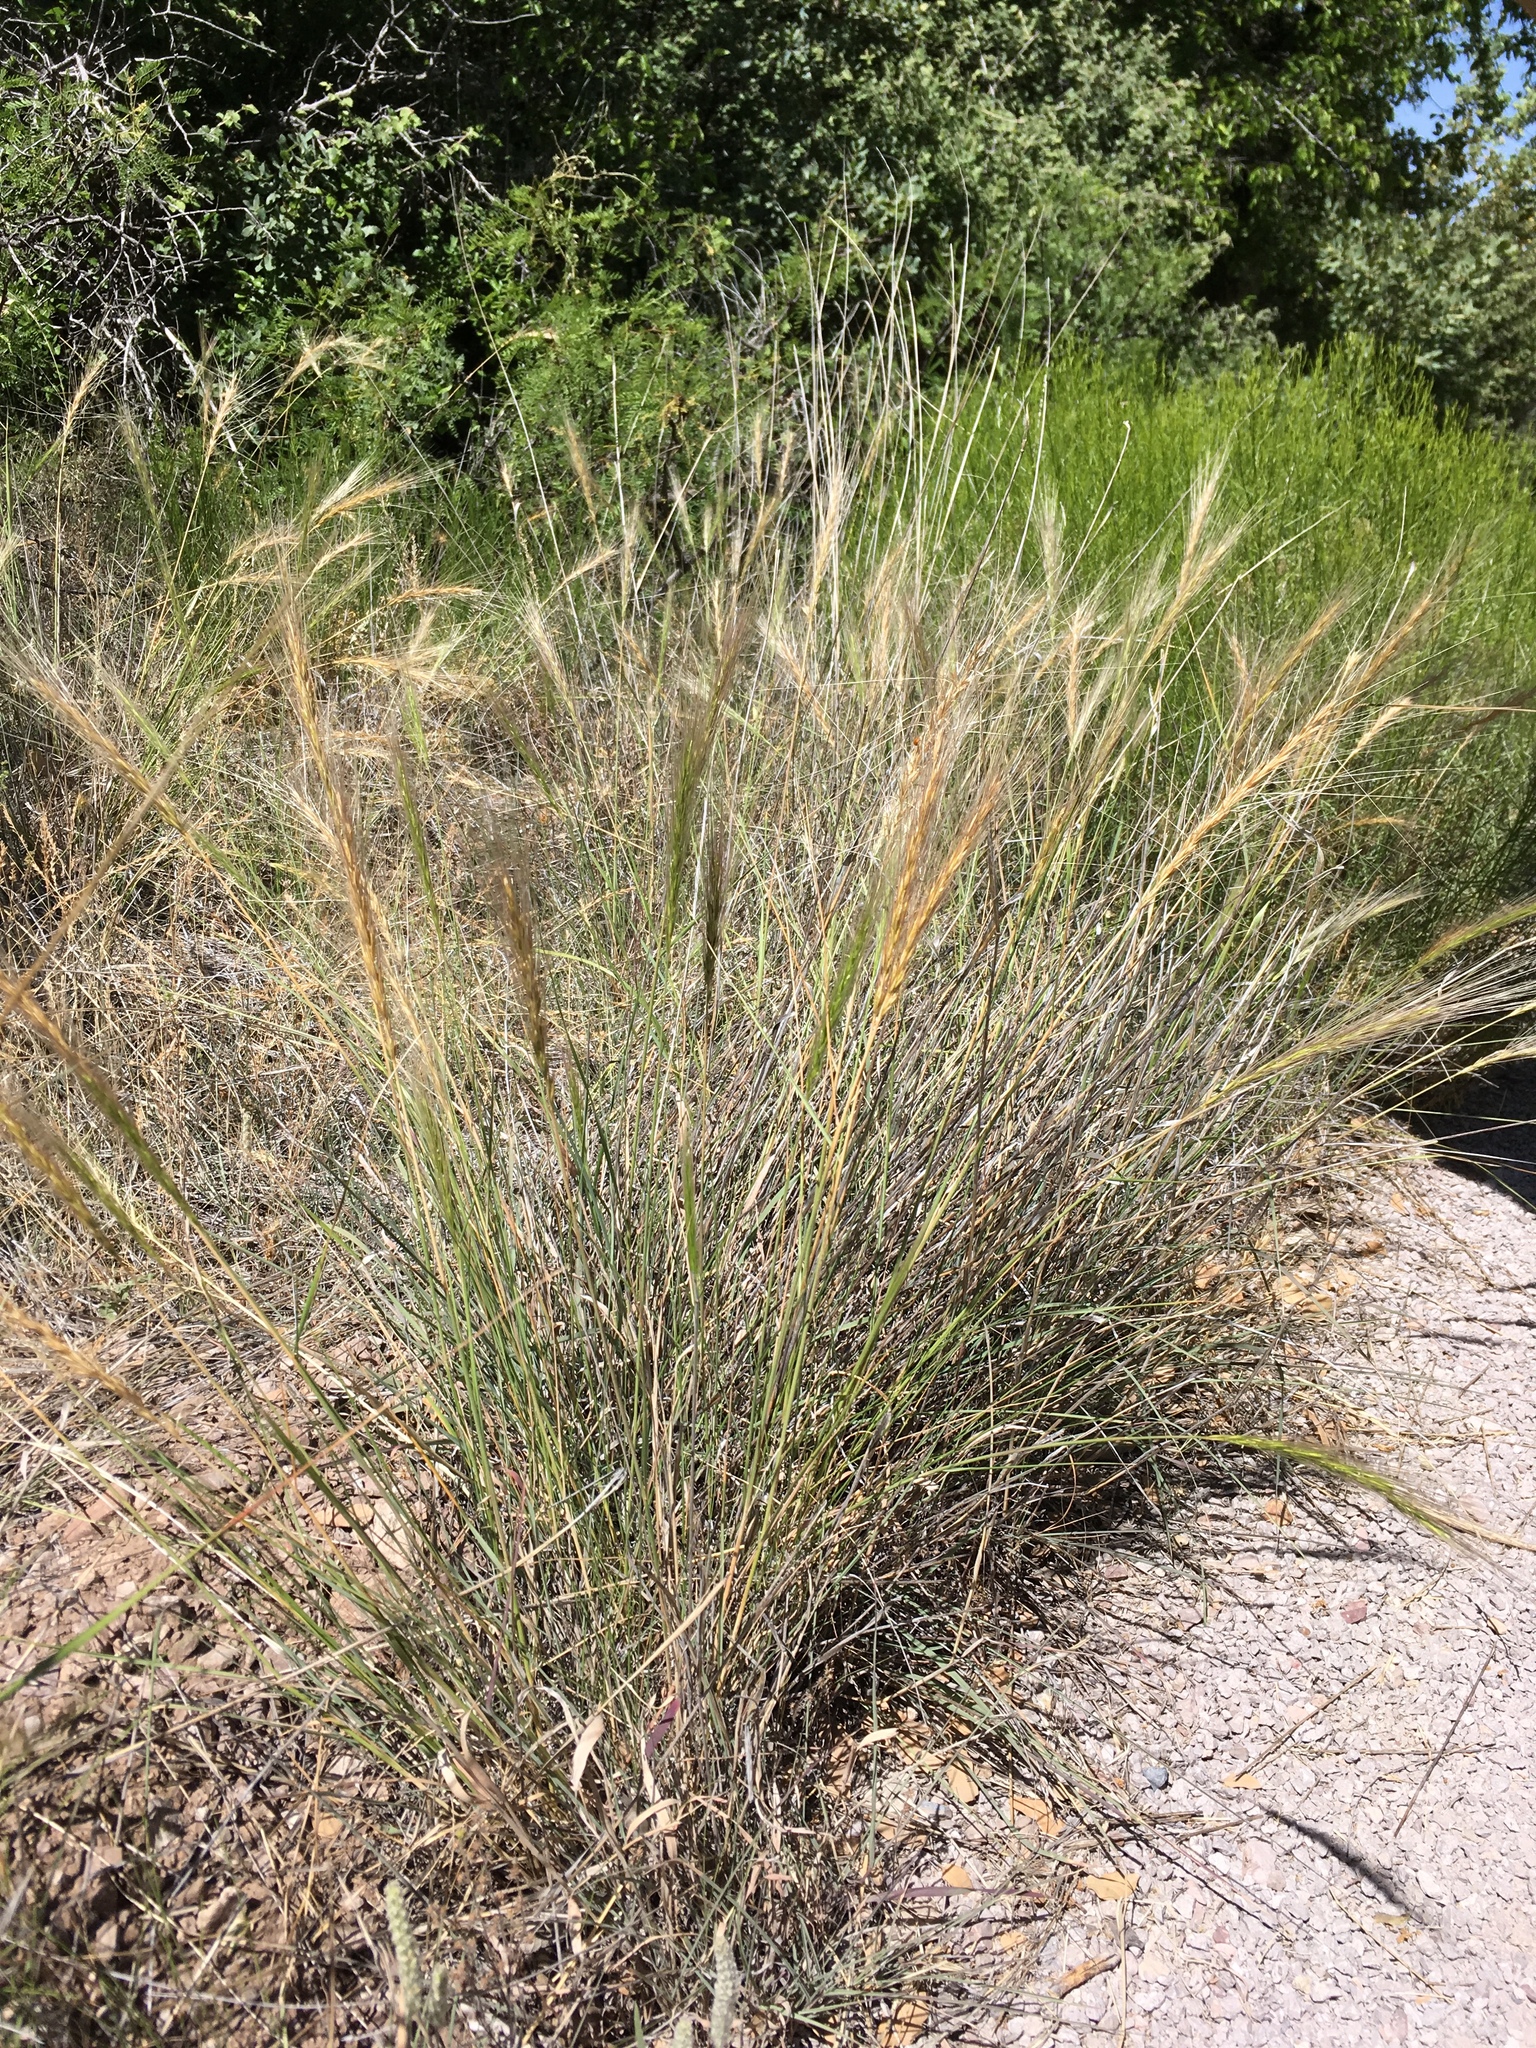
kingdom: Plantae
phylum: Tracheophyta
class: Liliopsida
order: Poales
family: Poaceae
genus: Elymus
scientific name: Elymus longifolius
